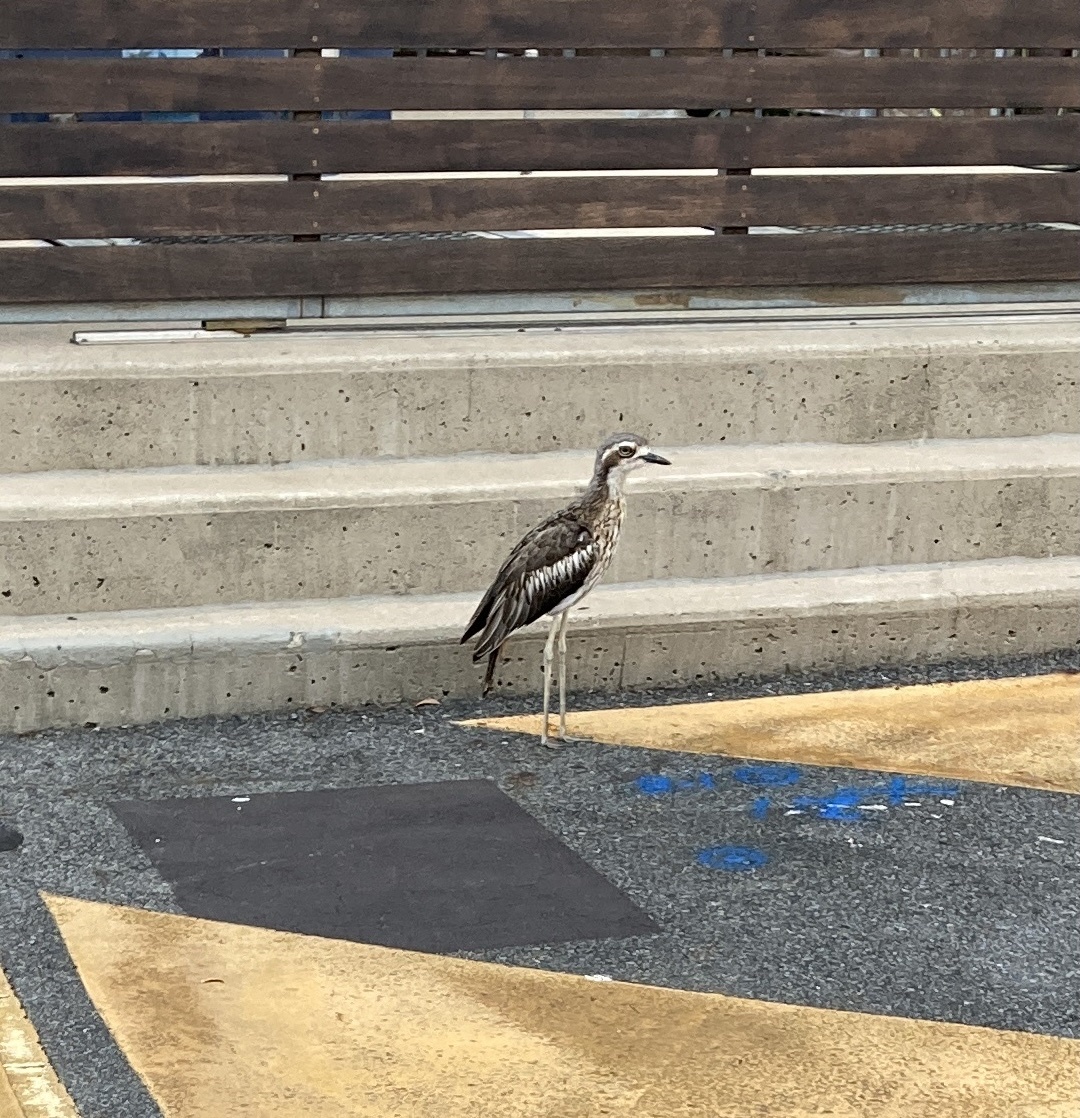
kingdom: Animalia
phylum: Chordata
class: Aves
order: Charadriiformes
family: Burhinidae
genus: Burhinus
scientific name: Burhinus grallarius
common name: Bush stone-curlew
